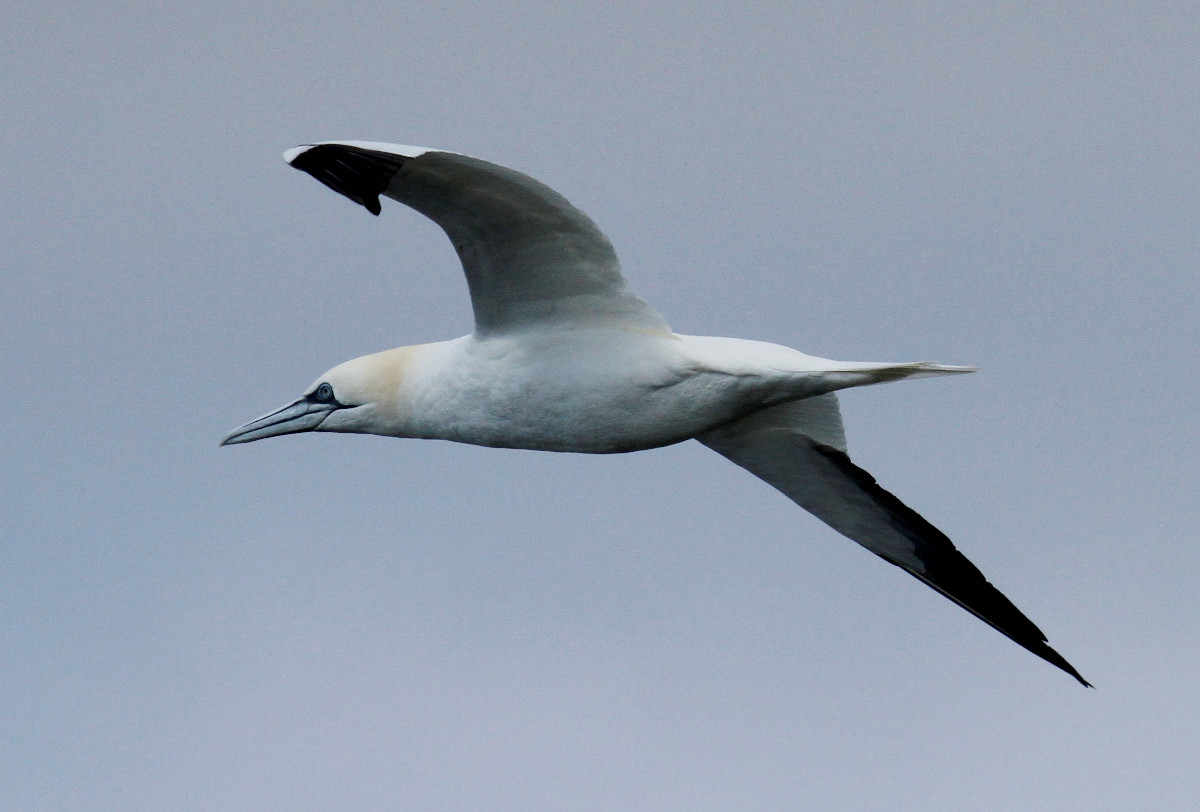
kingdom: Animalia
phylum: Chordata
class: Aves
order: Suliformes
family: Sulidae
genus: Morus
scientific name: Morus bassanus
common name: Northern gannet
